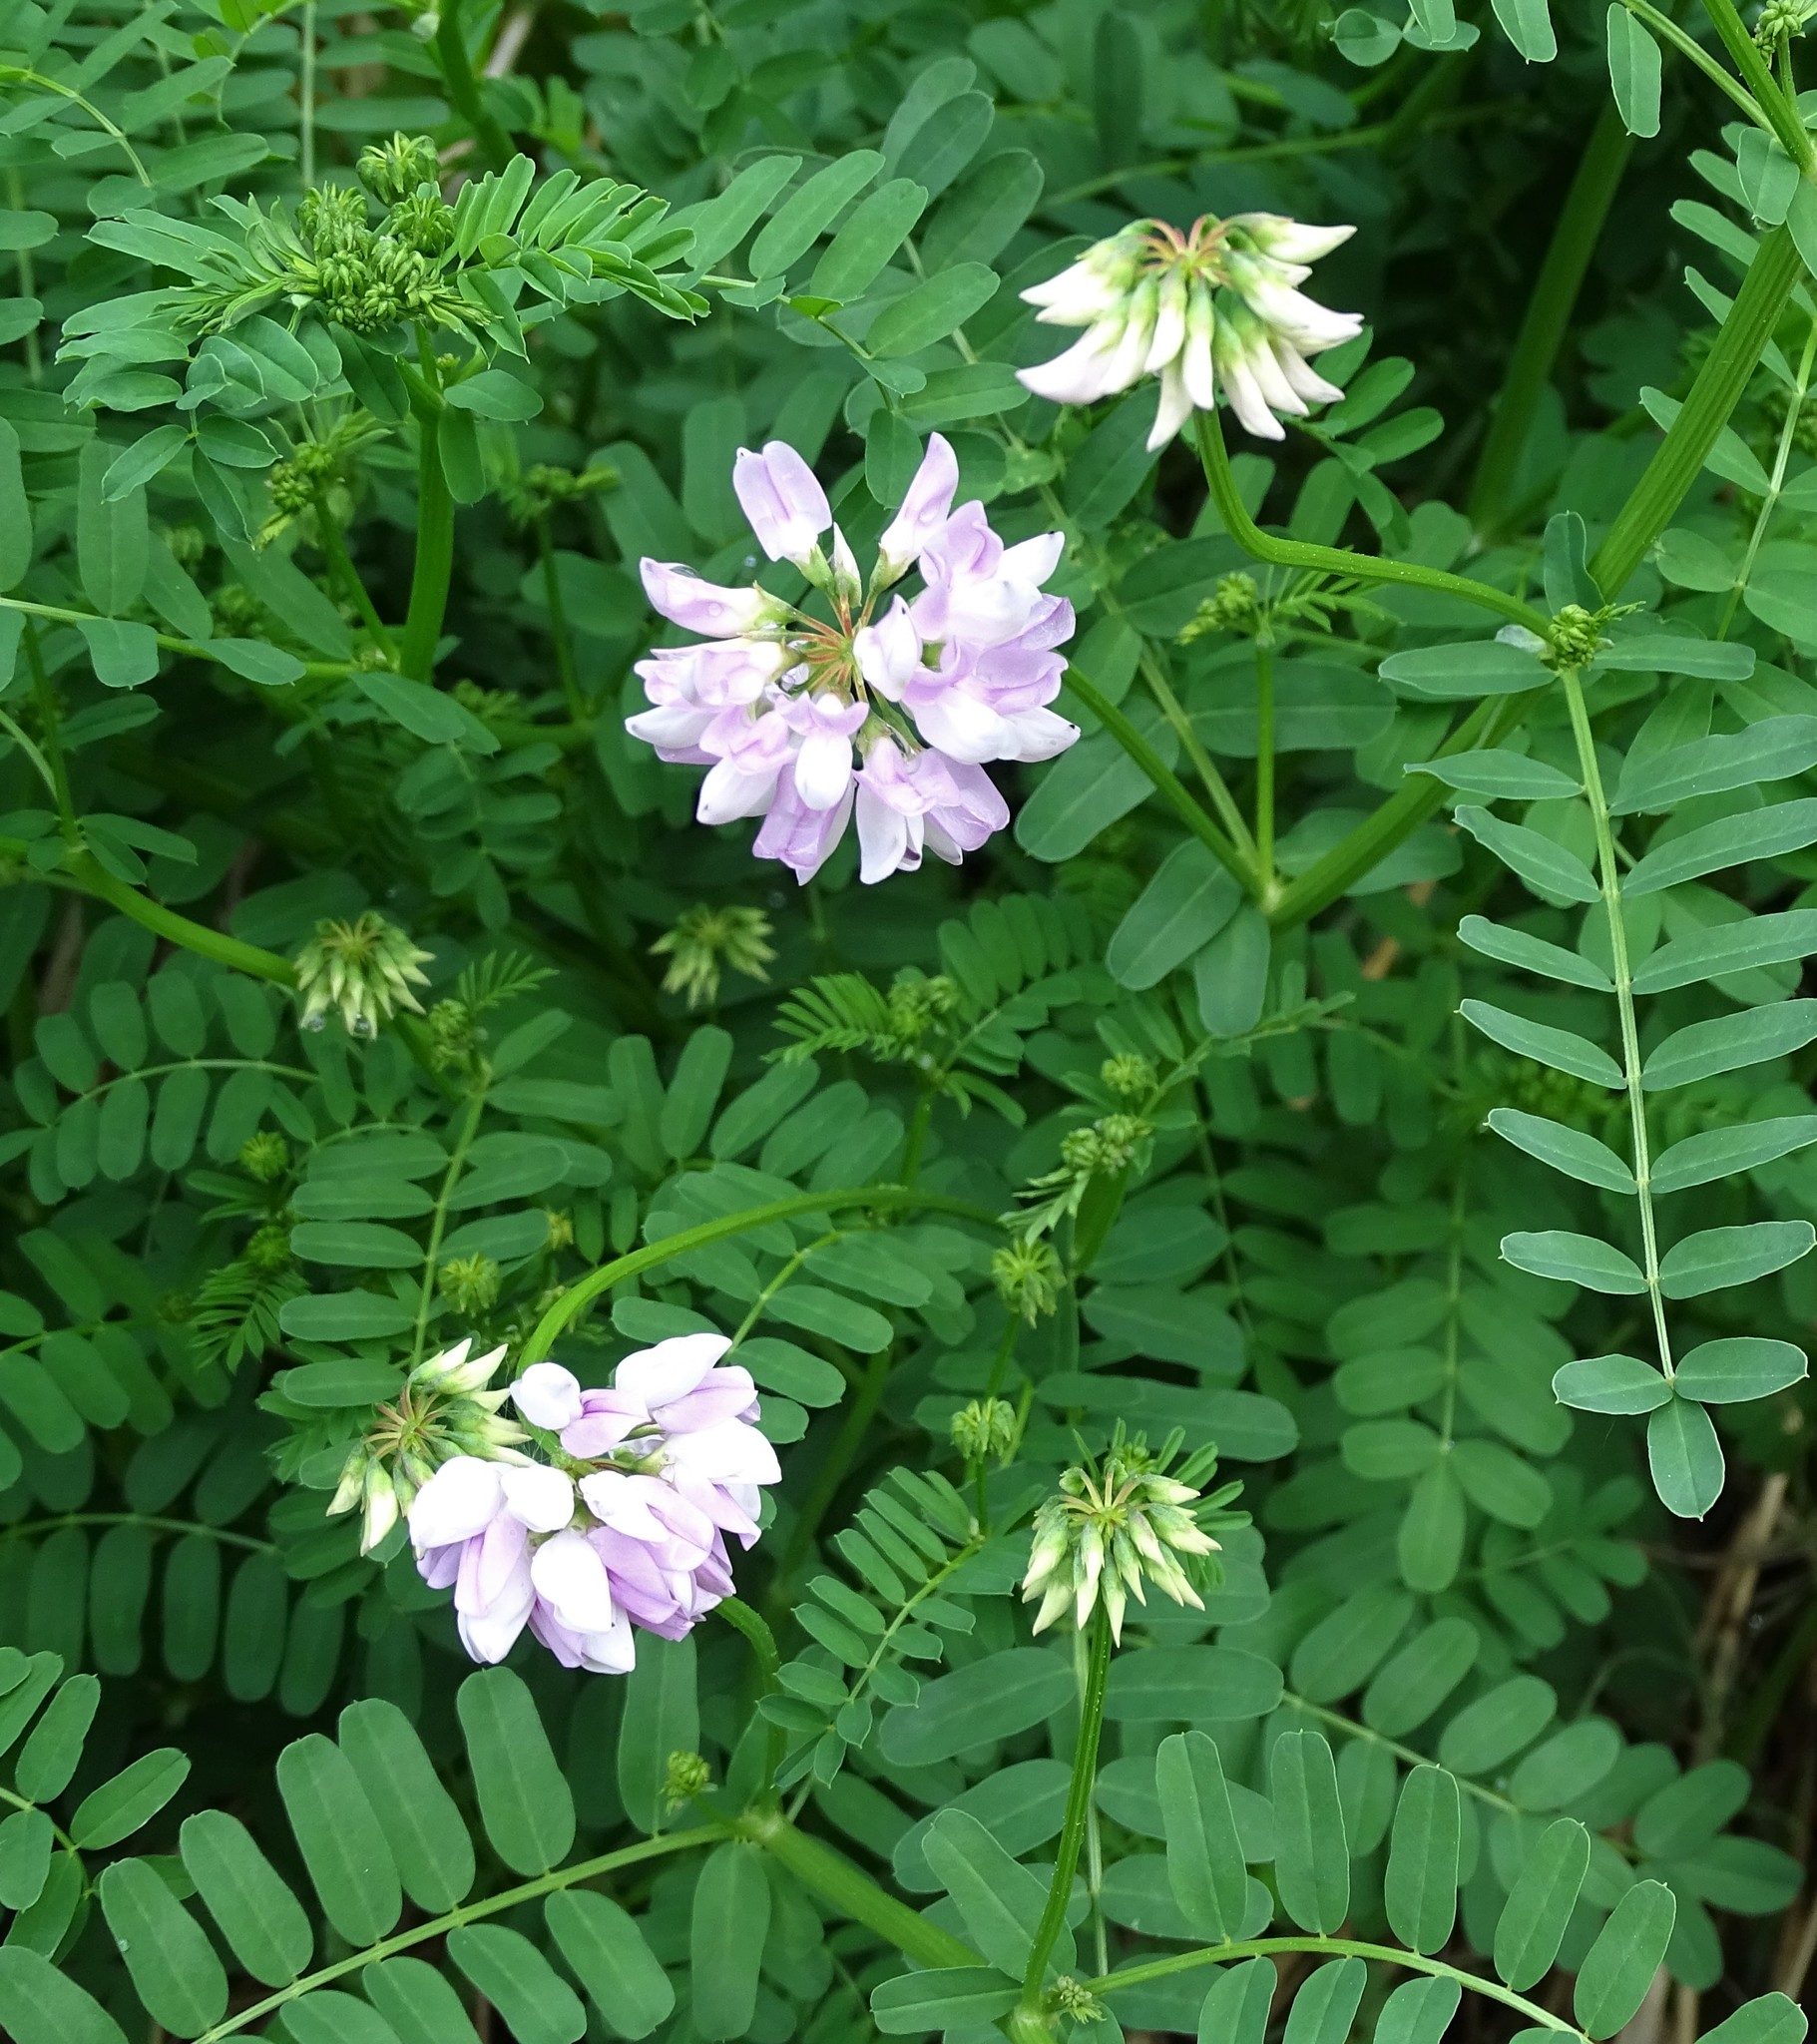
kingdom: Plantae
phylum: Tracheophyta
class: Magnoliopsida
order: Fabales
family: Fabaceae
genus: Coronilla
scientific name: Coronilla varia
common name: Crownvetch
